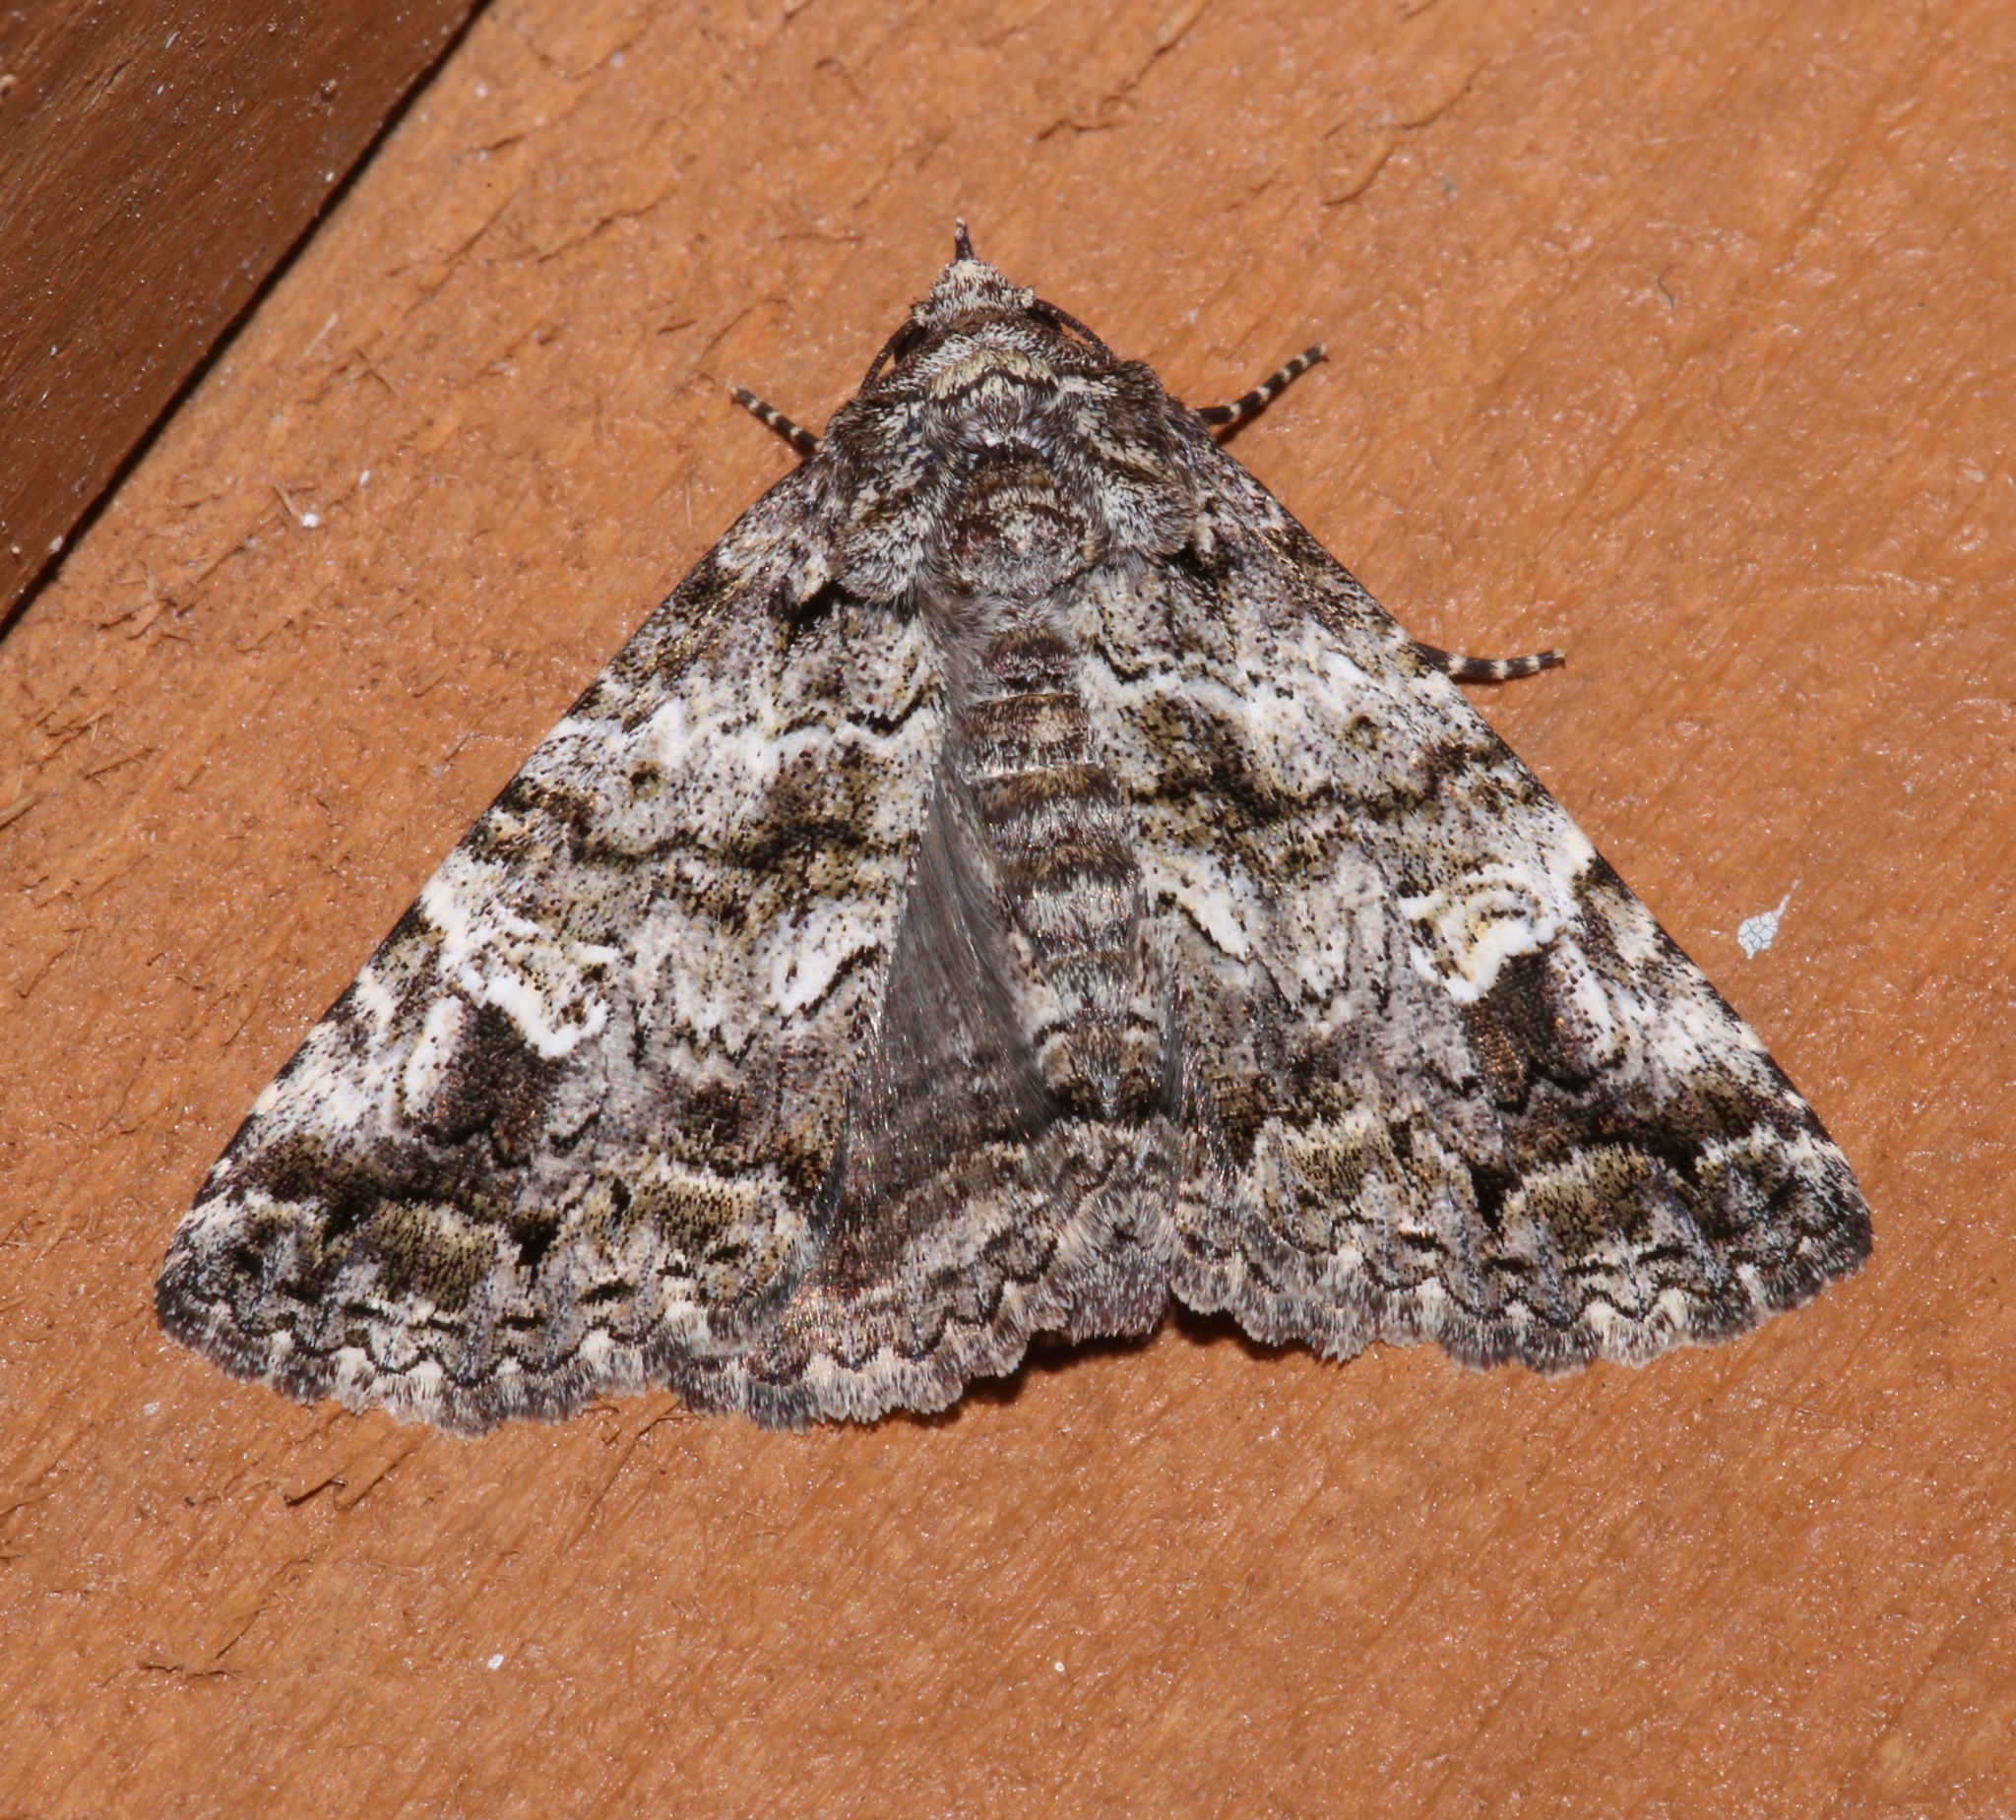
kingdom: Animalia
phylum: Arthropoda
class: Insecta
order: Lepidoptera
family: Erebidae
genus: Metria
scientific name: Metria amella
